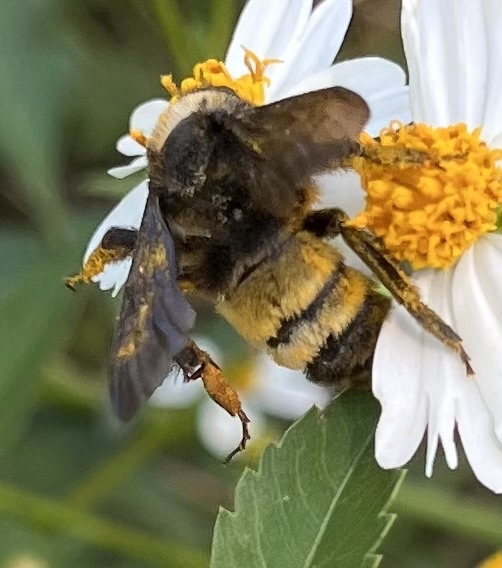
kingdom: Animalia
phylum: Arthropoda
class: Insecta
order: Hymenoptera
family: Apidae
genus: Bombus
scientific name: Bombus pensylvanicus
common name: Bumble bee
